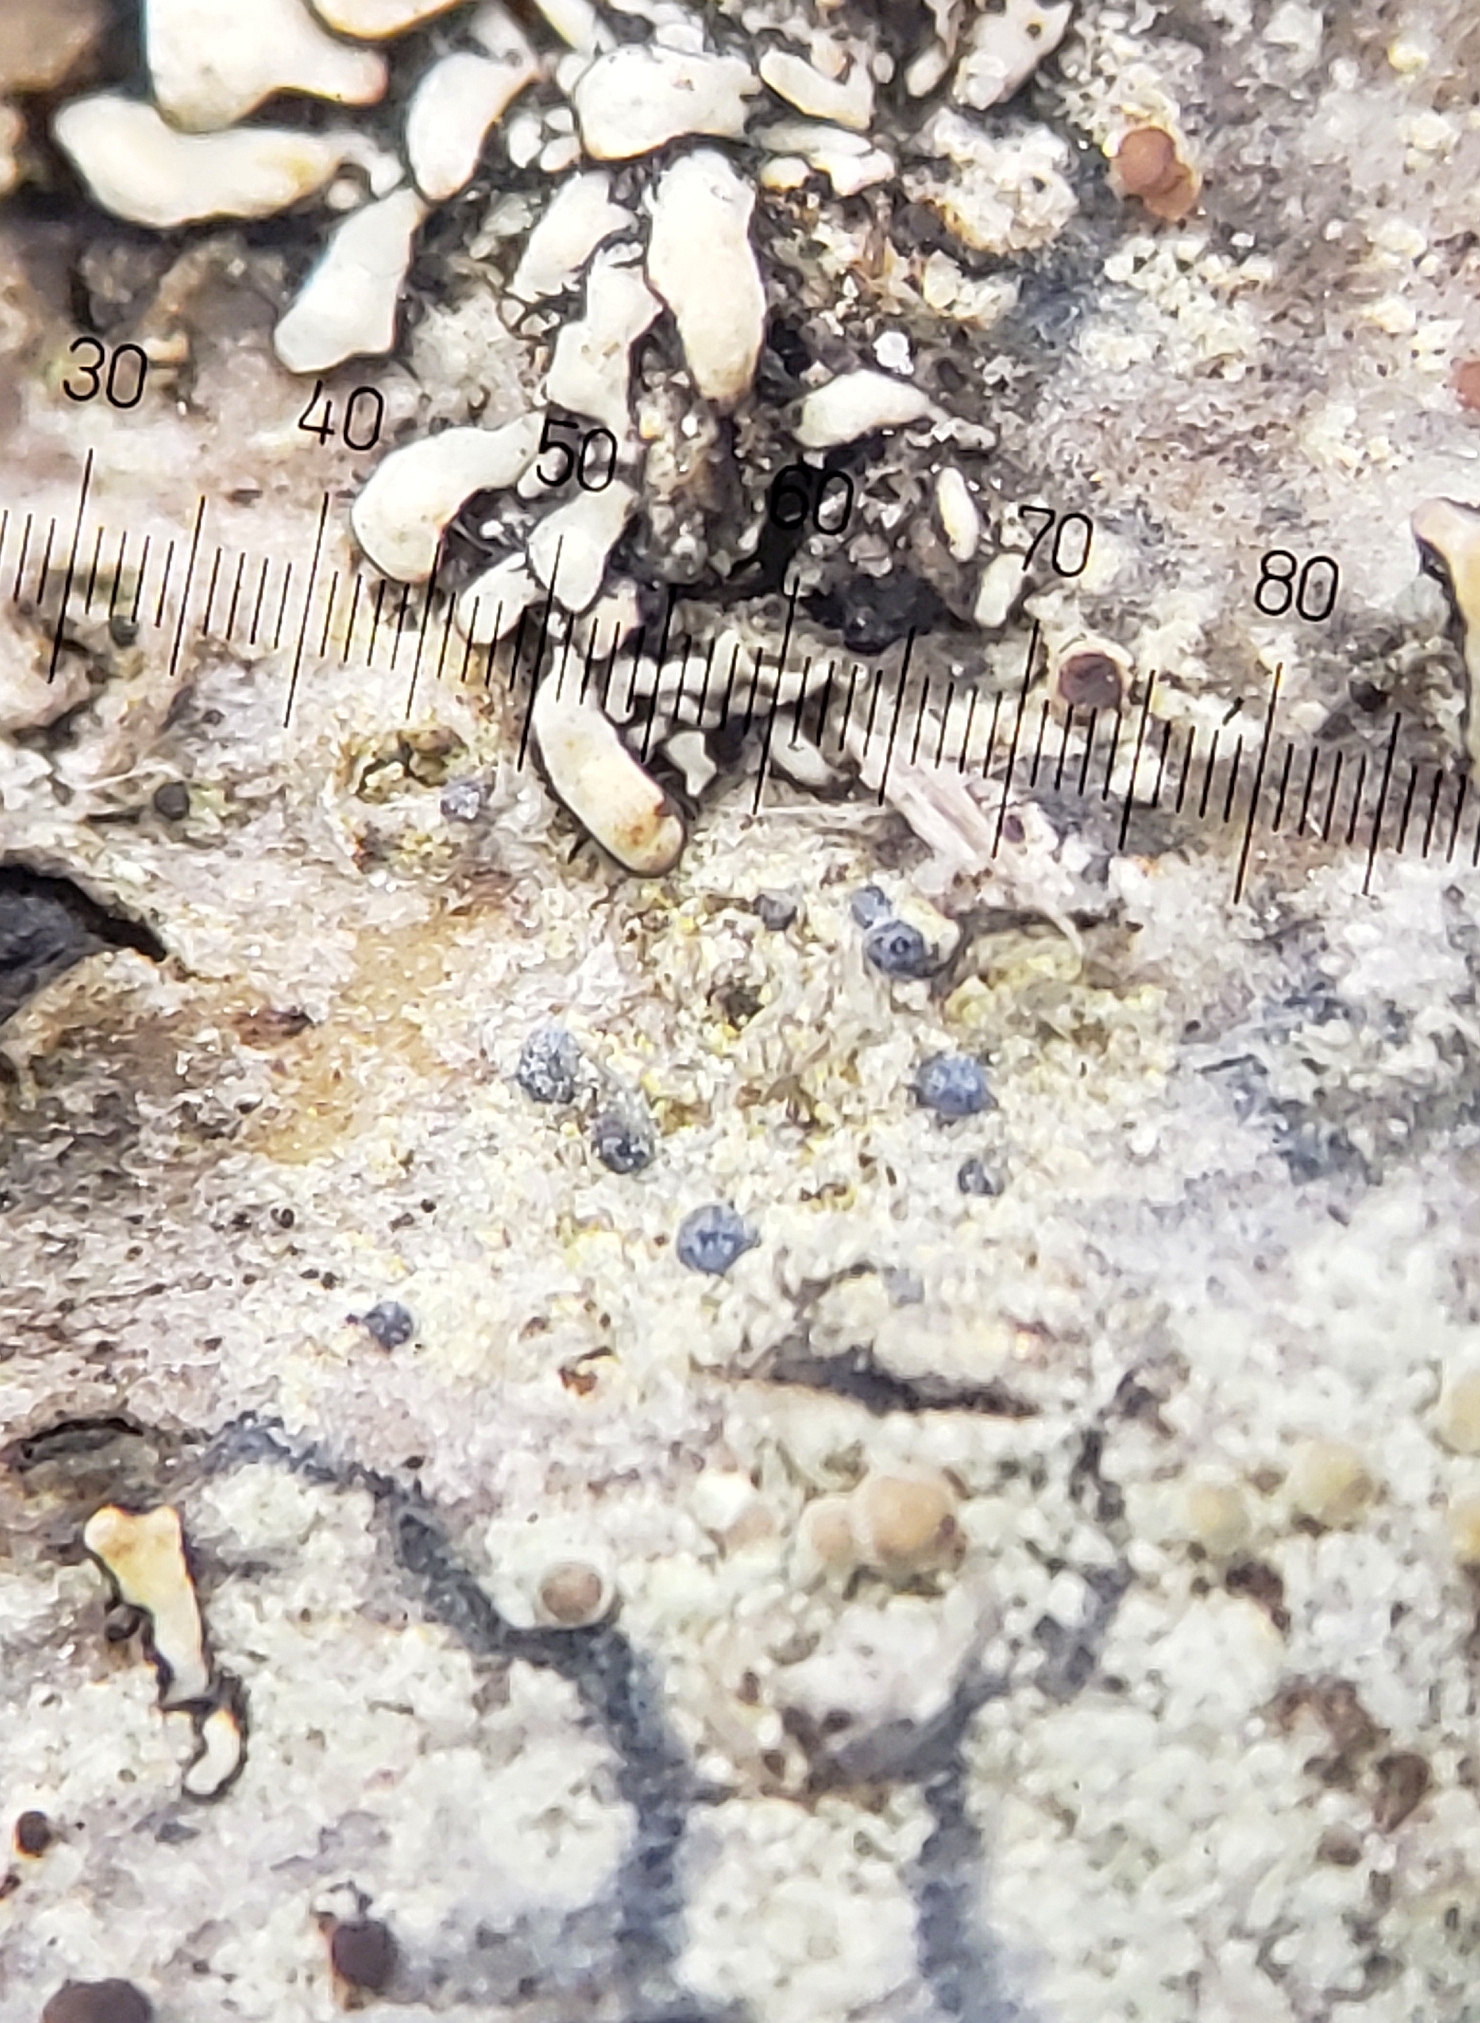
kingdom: Fungi
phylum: Ascomycota
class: Arthoniomycetes
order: Arthoniales
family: Chrysotrichaceae
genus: Chrysothrix
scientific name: Chrysothrix caesia
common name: Frosted comma lichen
